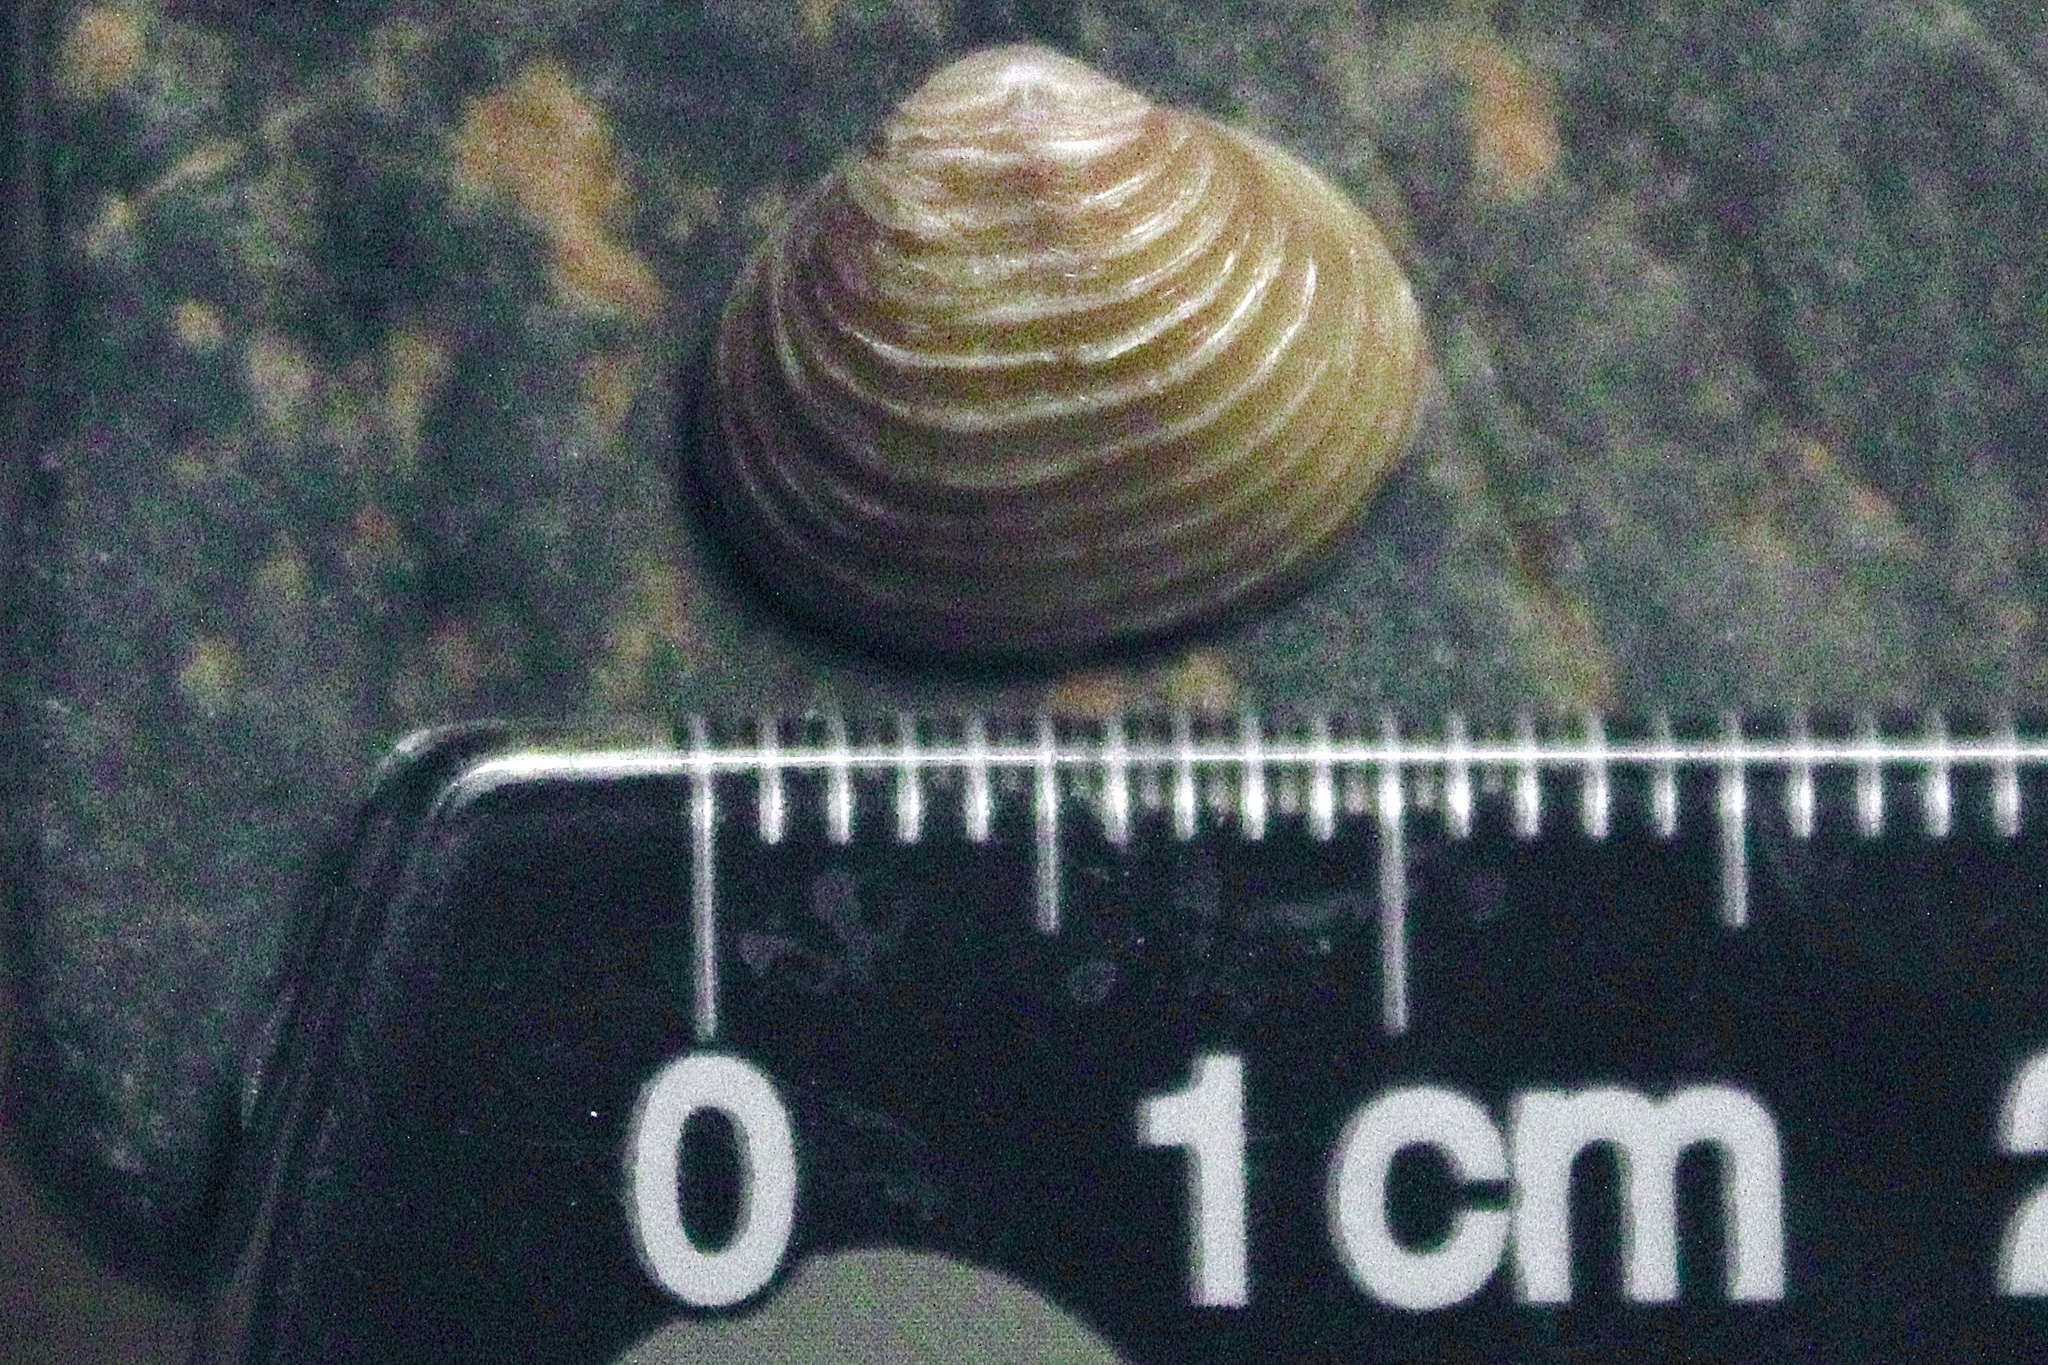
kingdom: Animalia
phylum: Mollusca
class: Bivalvia
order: Venerida
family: Cyrenidae
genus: Corbicula
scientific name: Corbicula
